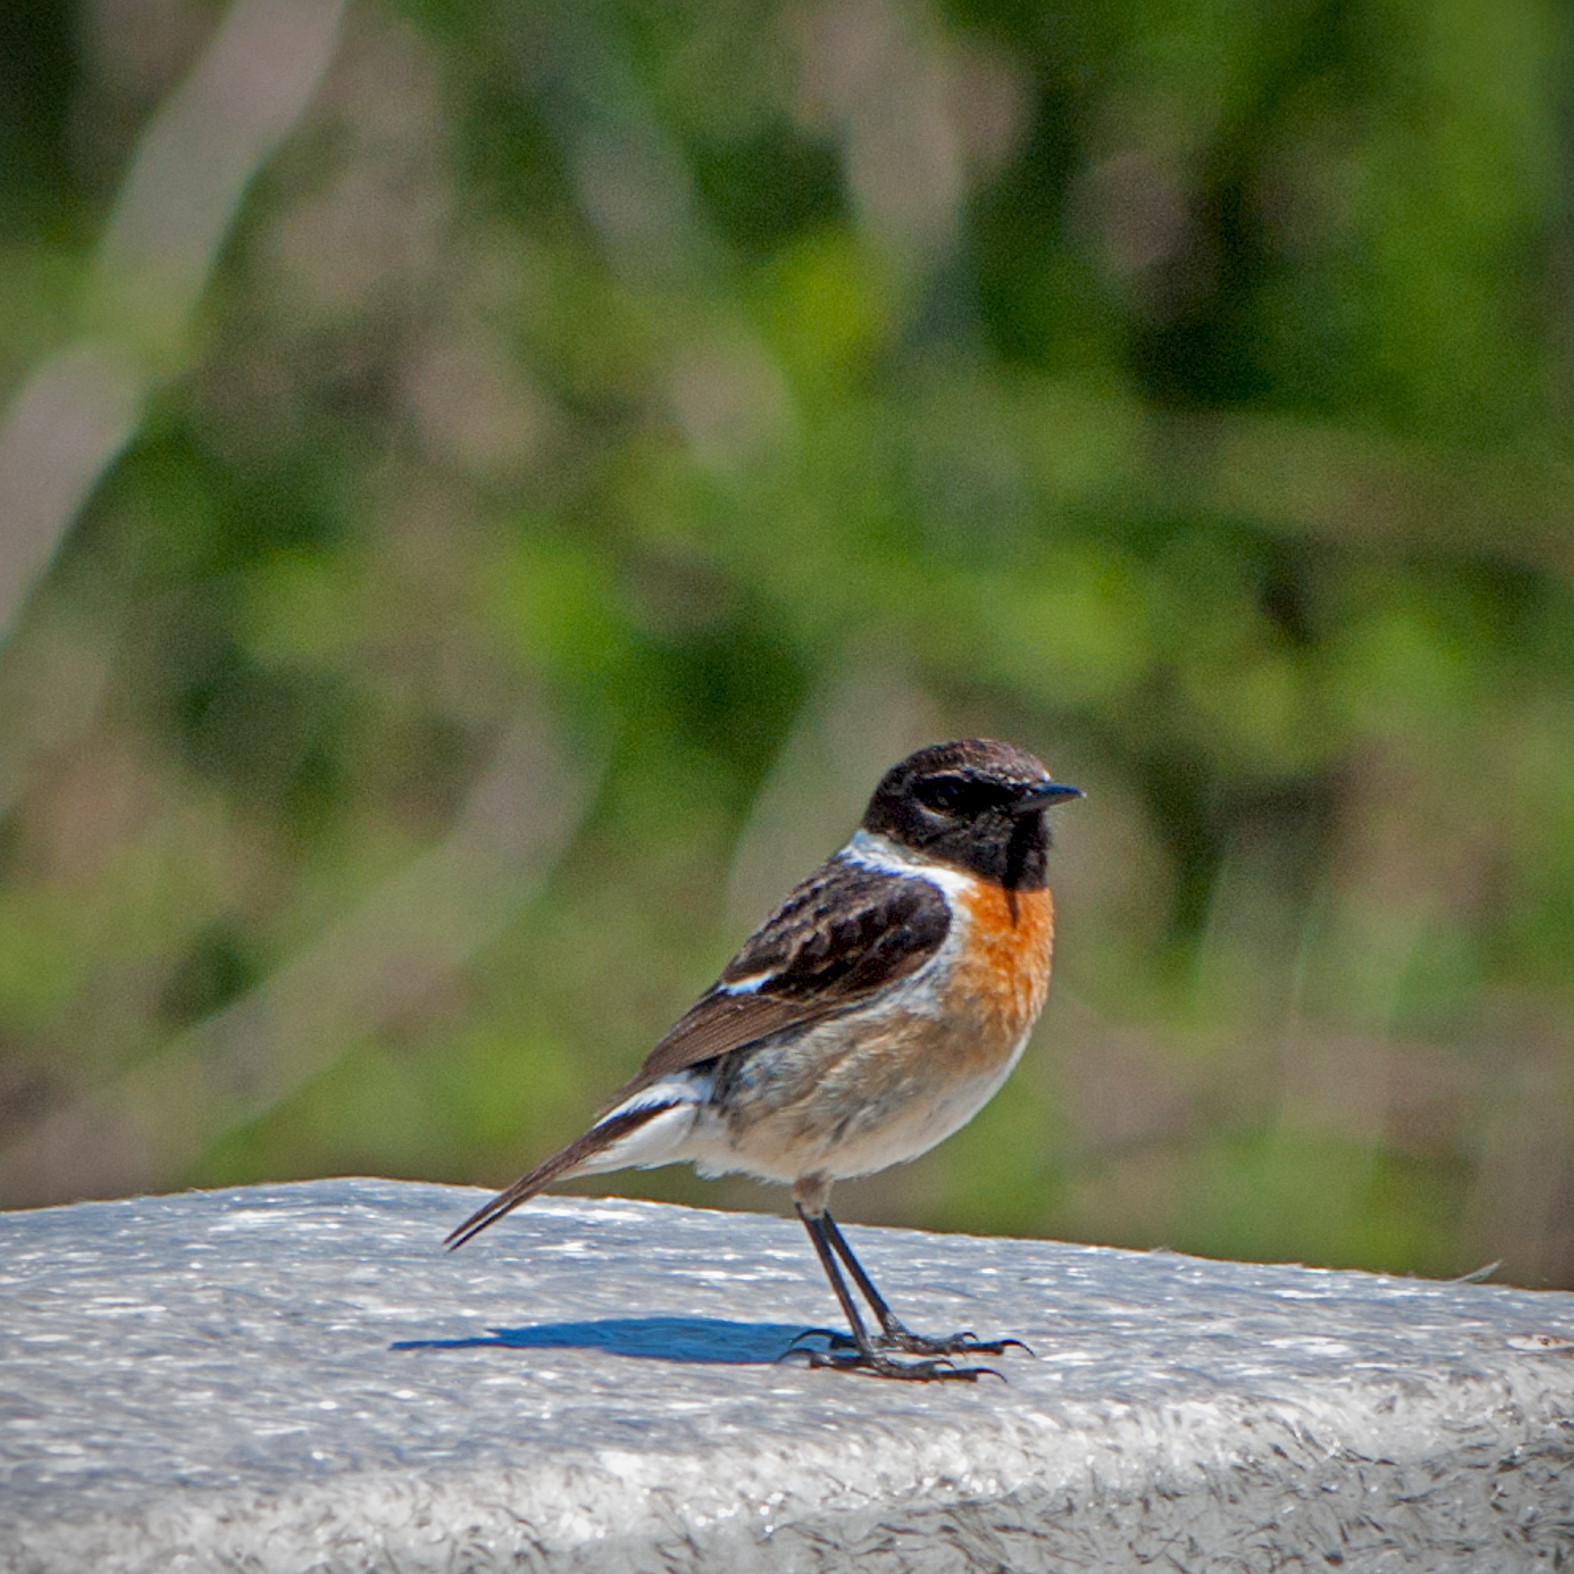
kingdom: Animalia
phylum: Chordata
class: Aves
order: Passeriformes
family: Muscicapidae
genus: Saxicola
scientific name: Saxicola rubicola
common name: European stonechat
